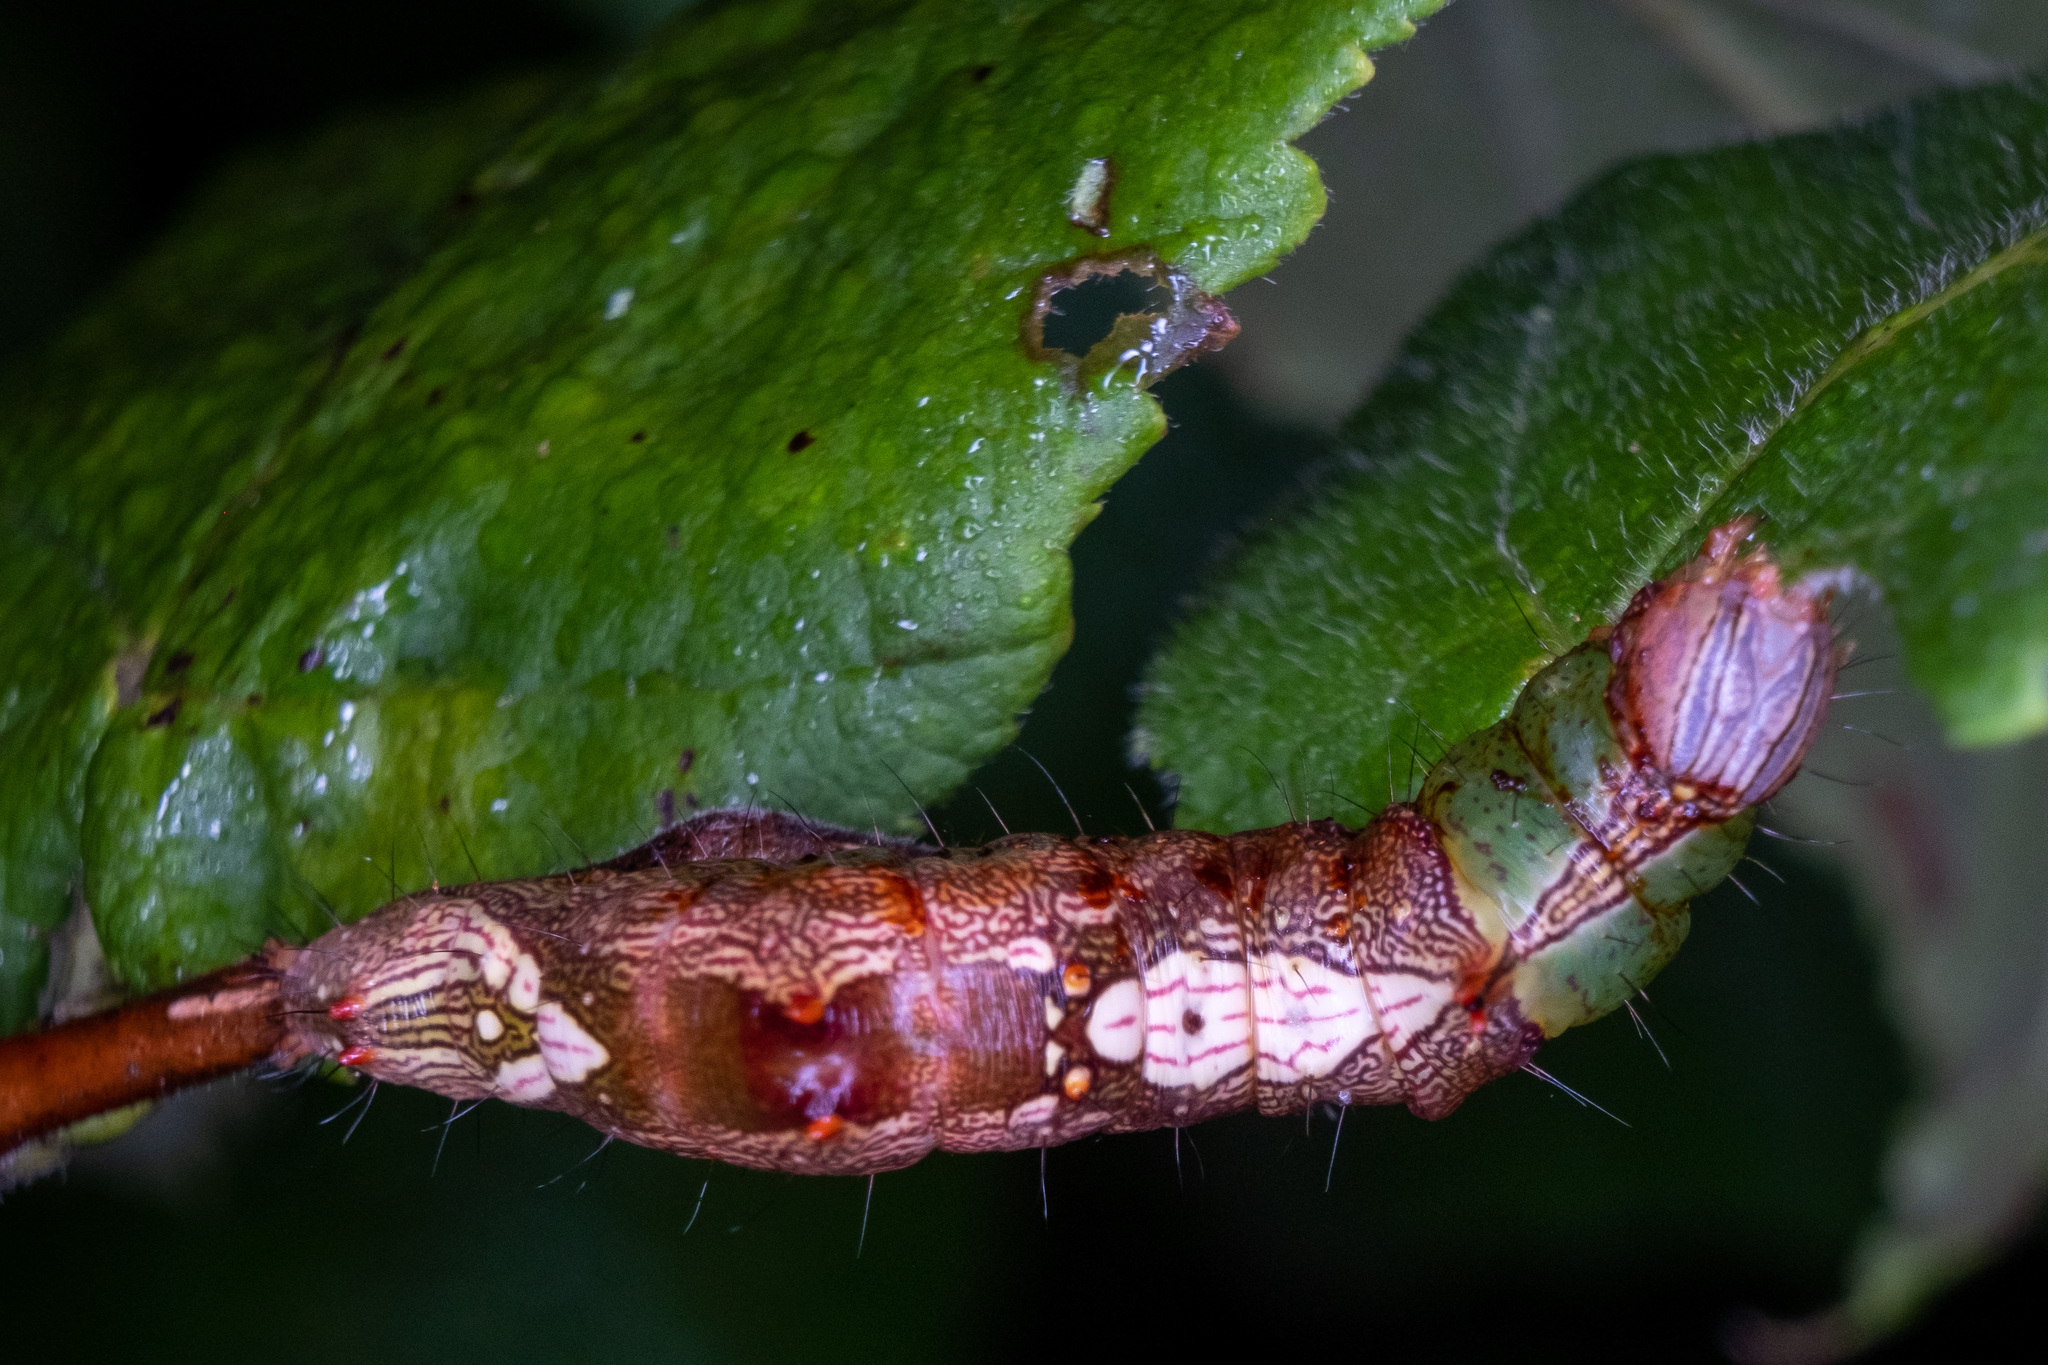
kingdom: Animalia
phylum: Arthropoda
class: Insecta
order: Lepidoptera
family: Notodontidae
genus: Schizura
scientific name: Schizura ipomaeae
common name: Morning-glory prominent
